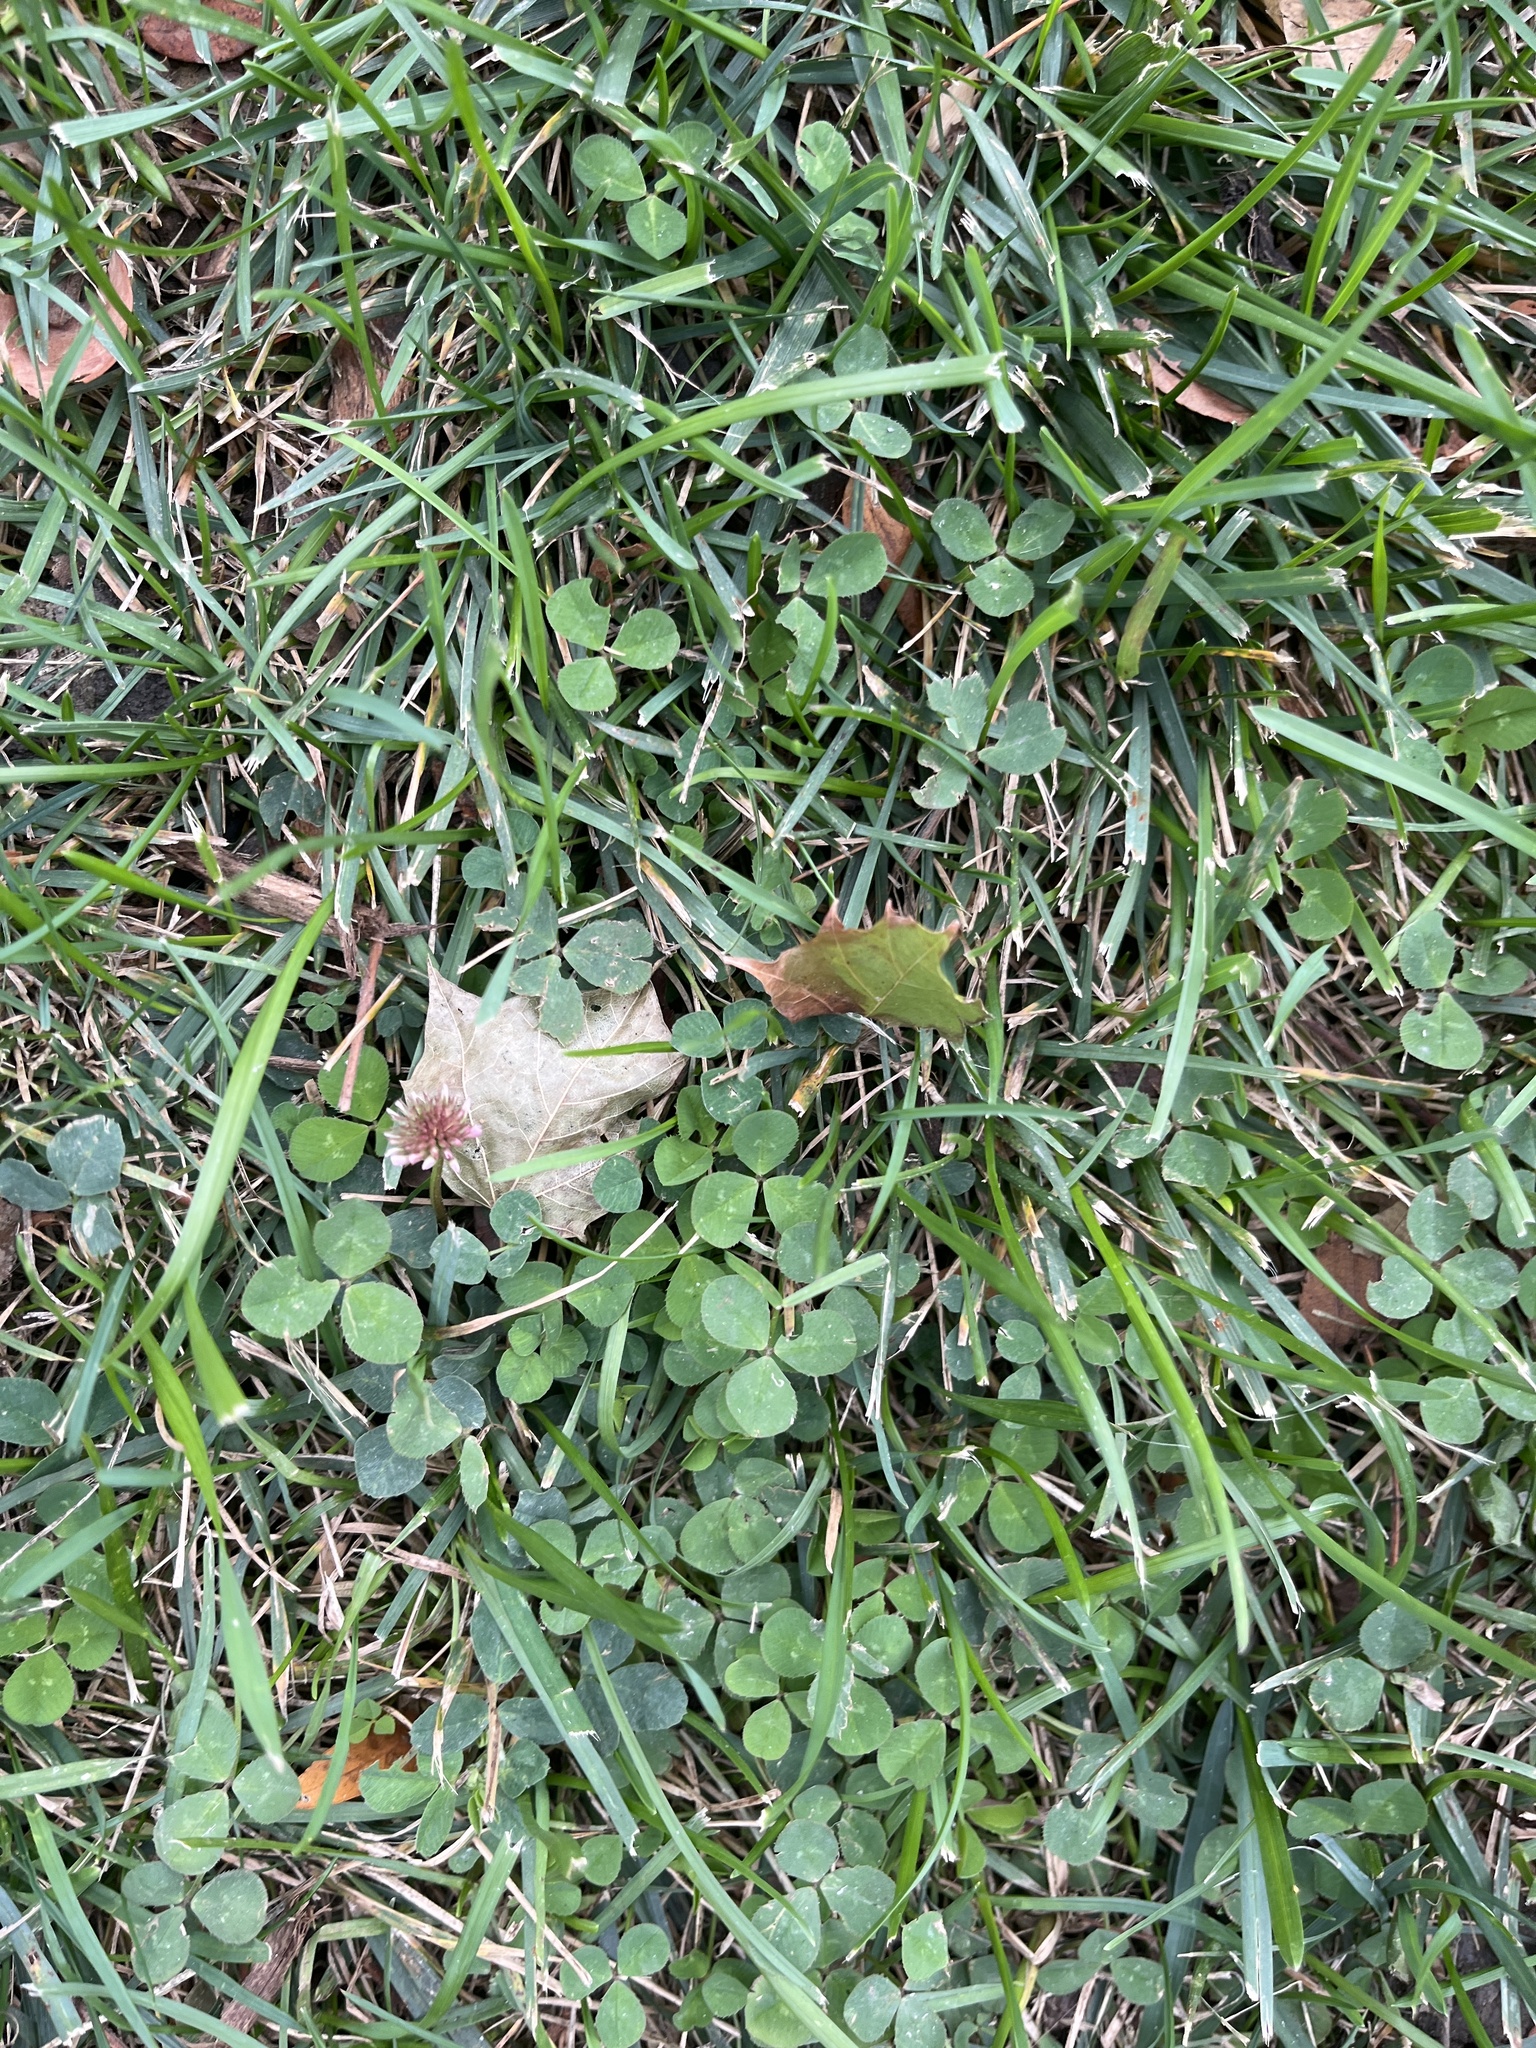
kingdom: Plantae
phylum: Tracheophyta
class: Magnoliopsida
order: Fabales
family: Fabaceae
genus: Trifolium
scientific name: Trifolium repens
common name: White clover
